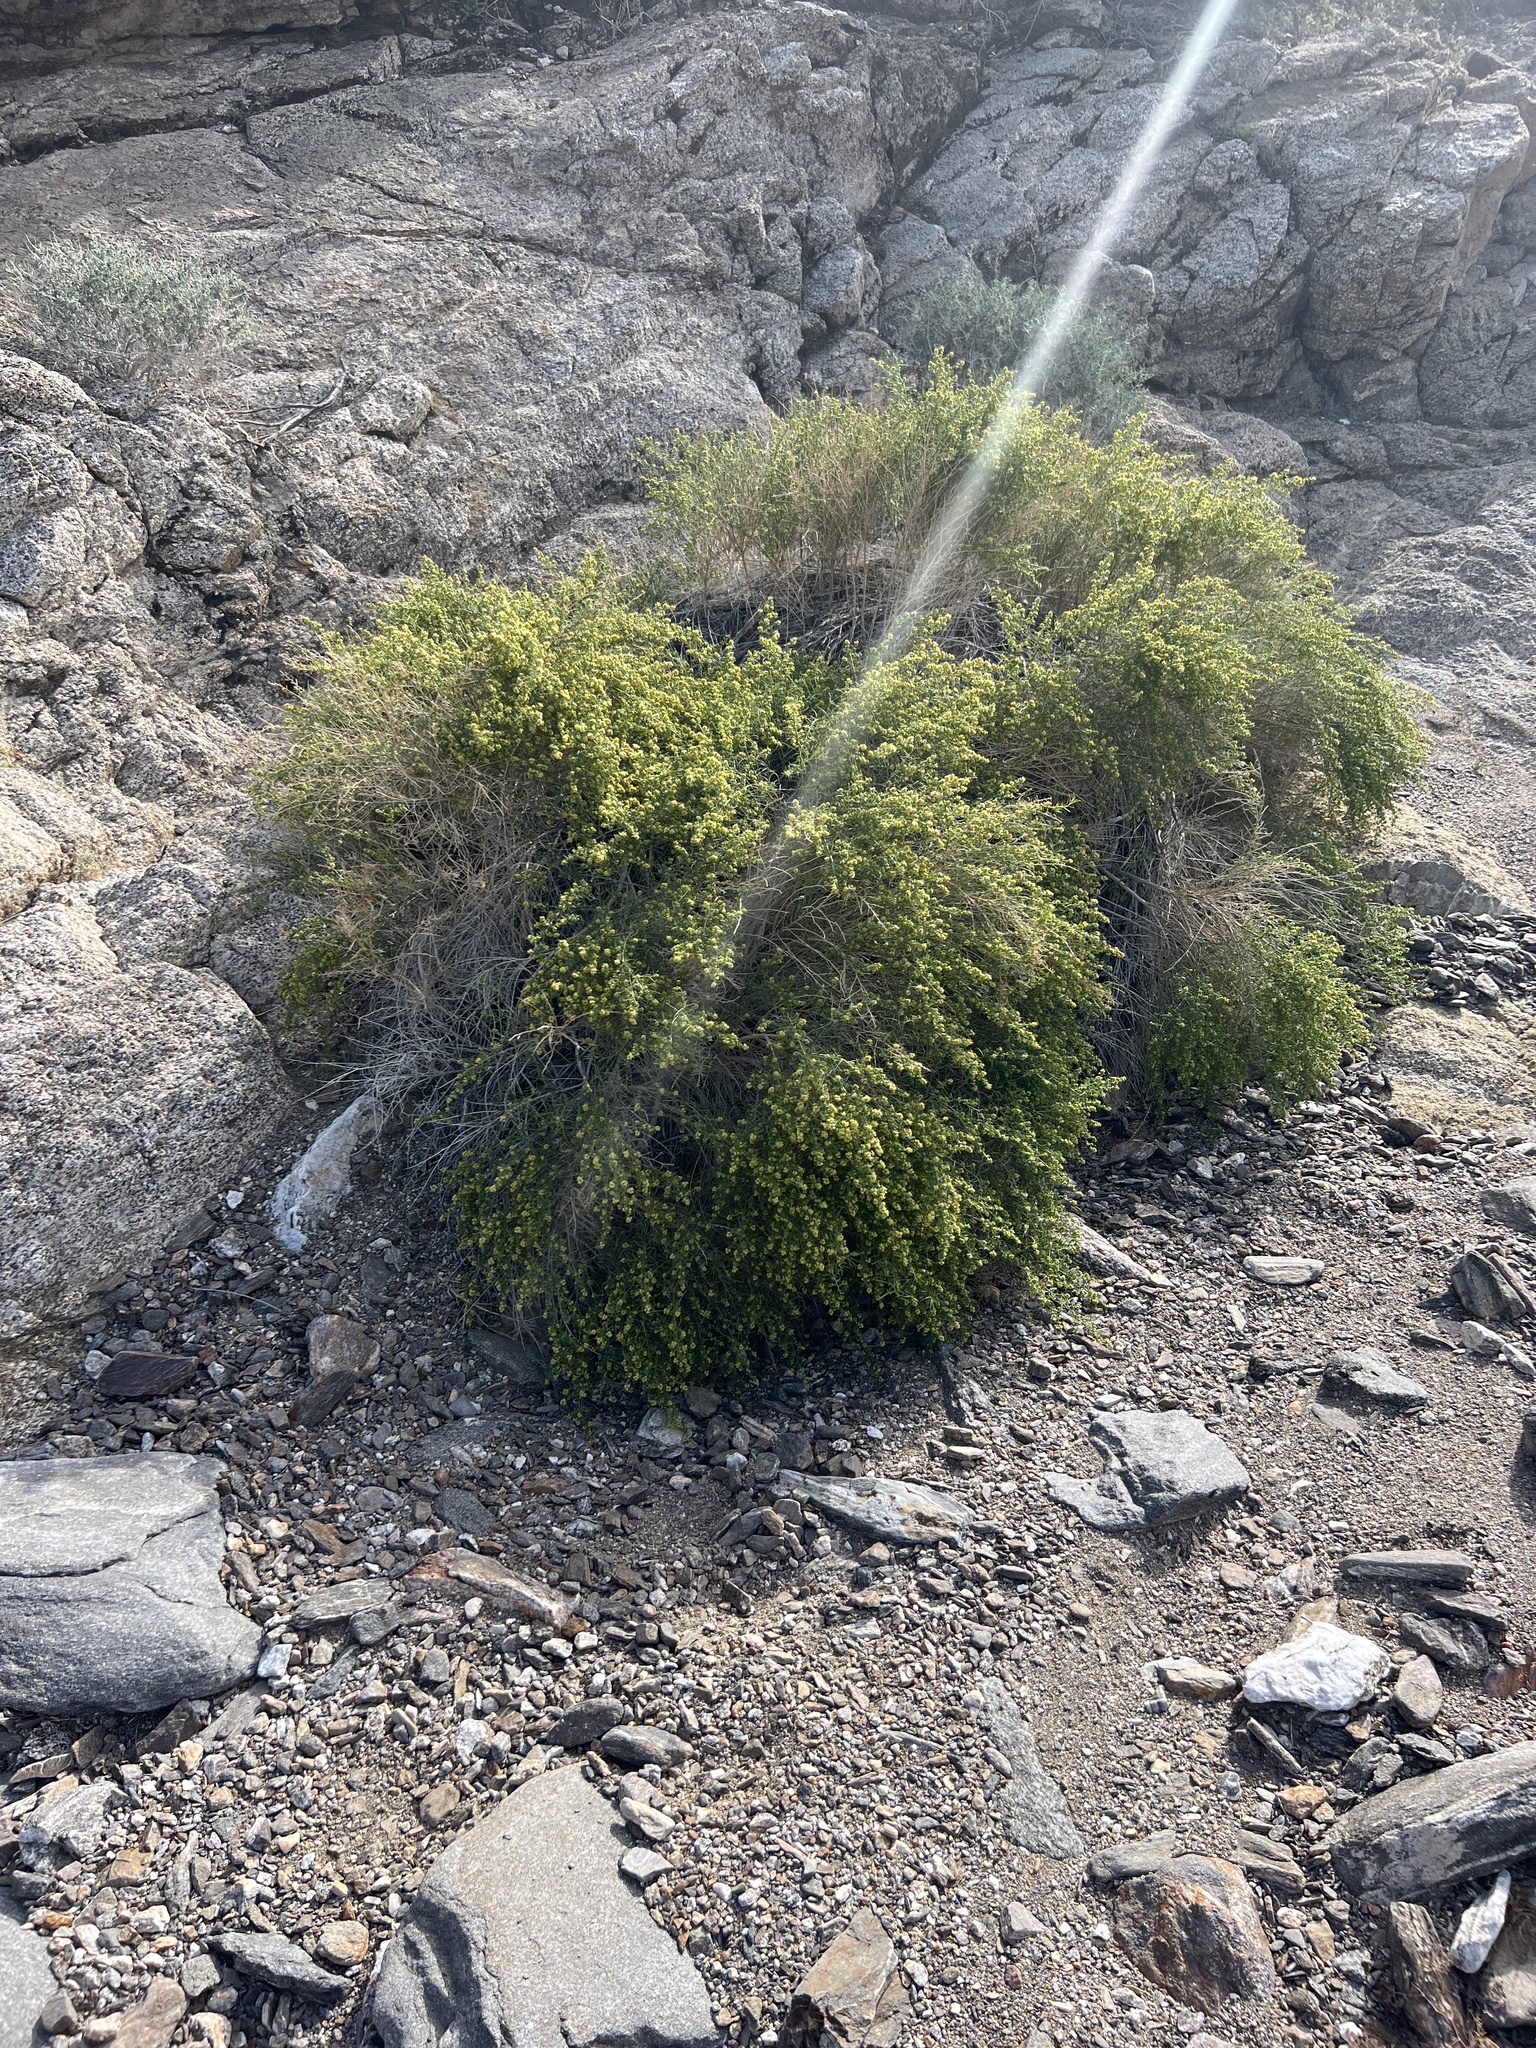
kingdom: Plantae
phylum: Tracheophyta
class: Magnoliopsida
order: Asterales
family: Asteraceae
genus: Ambrosia
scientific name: Ambrosia salsola
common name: Burrobrush
